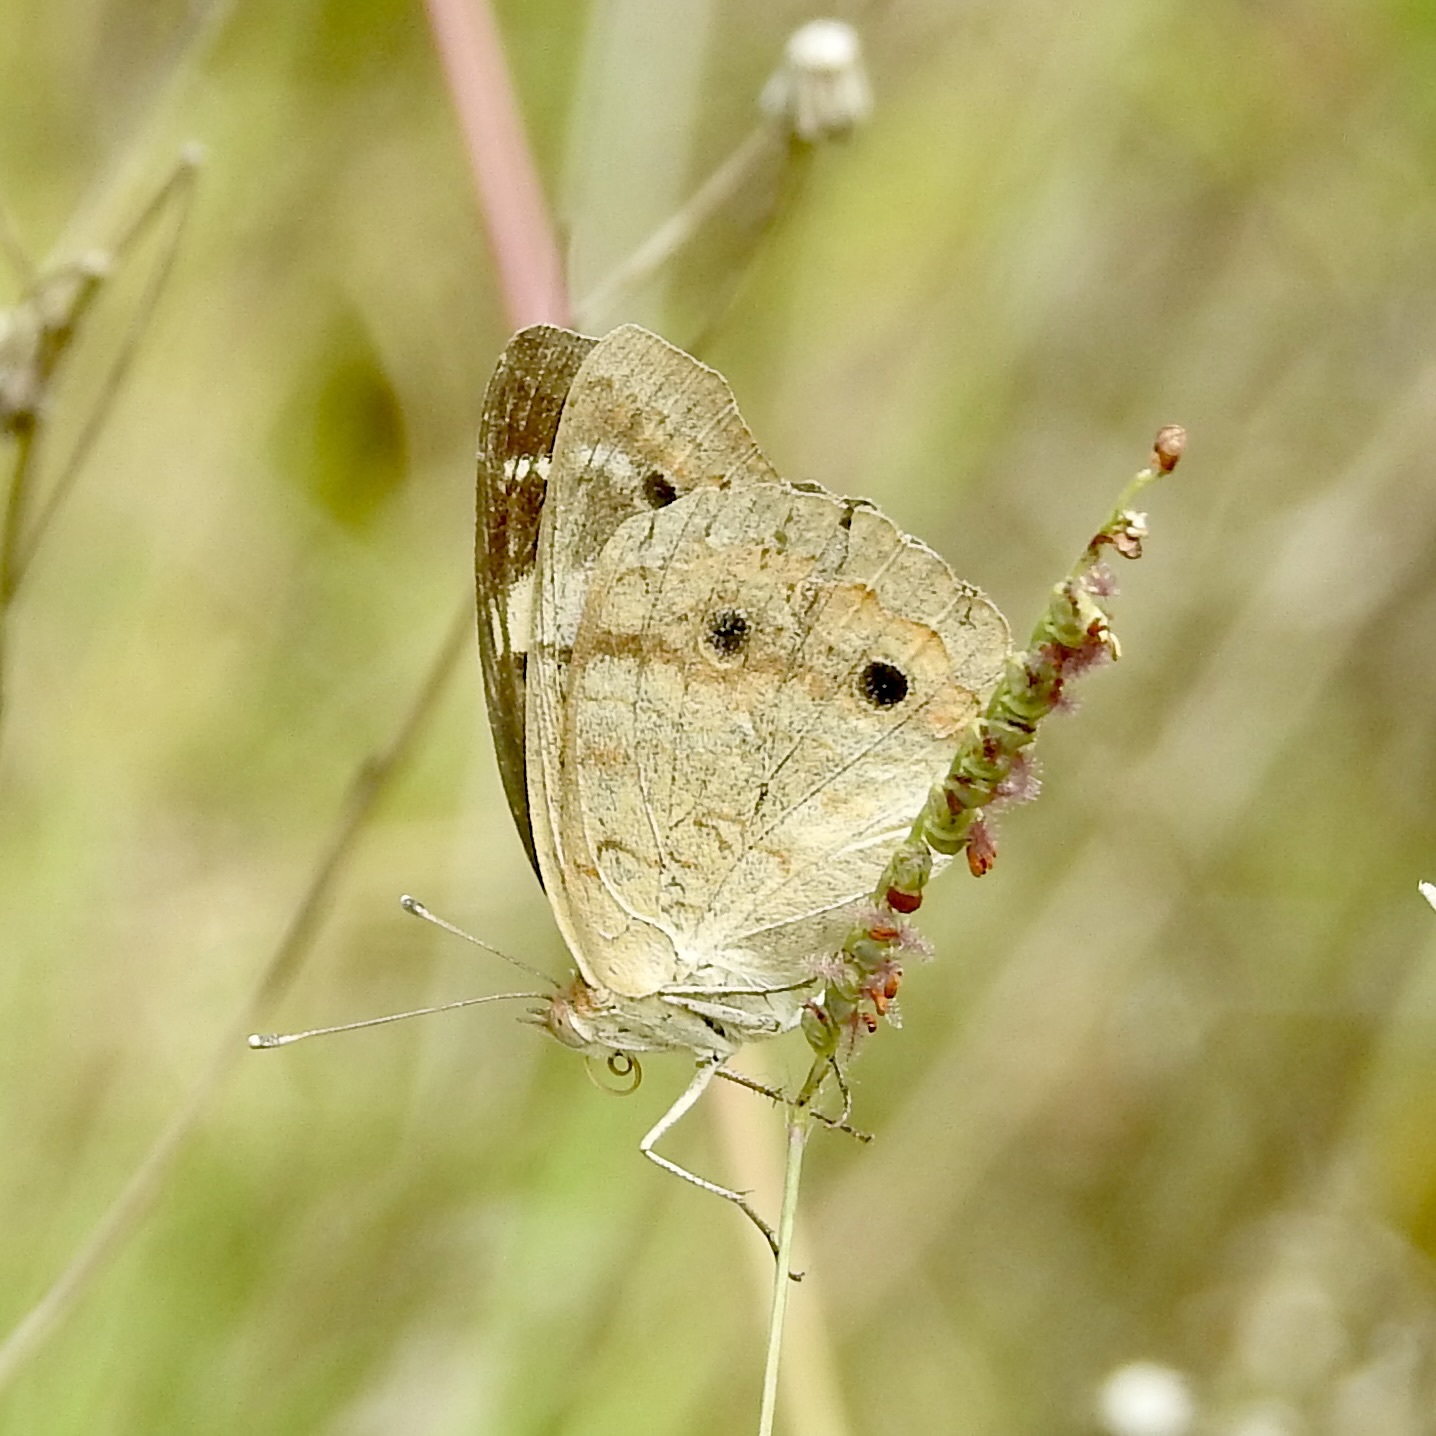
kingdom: Animalia
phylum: Arthropoda
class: Insecta
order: Lepidoptera
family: Nymphalidae
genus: Junonia
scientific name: Junonia coenia
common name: Common buckeye
